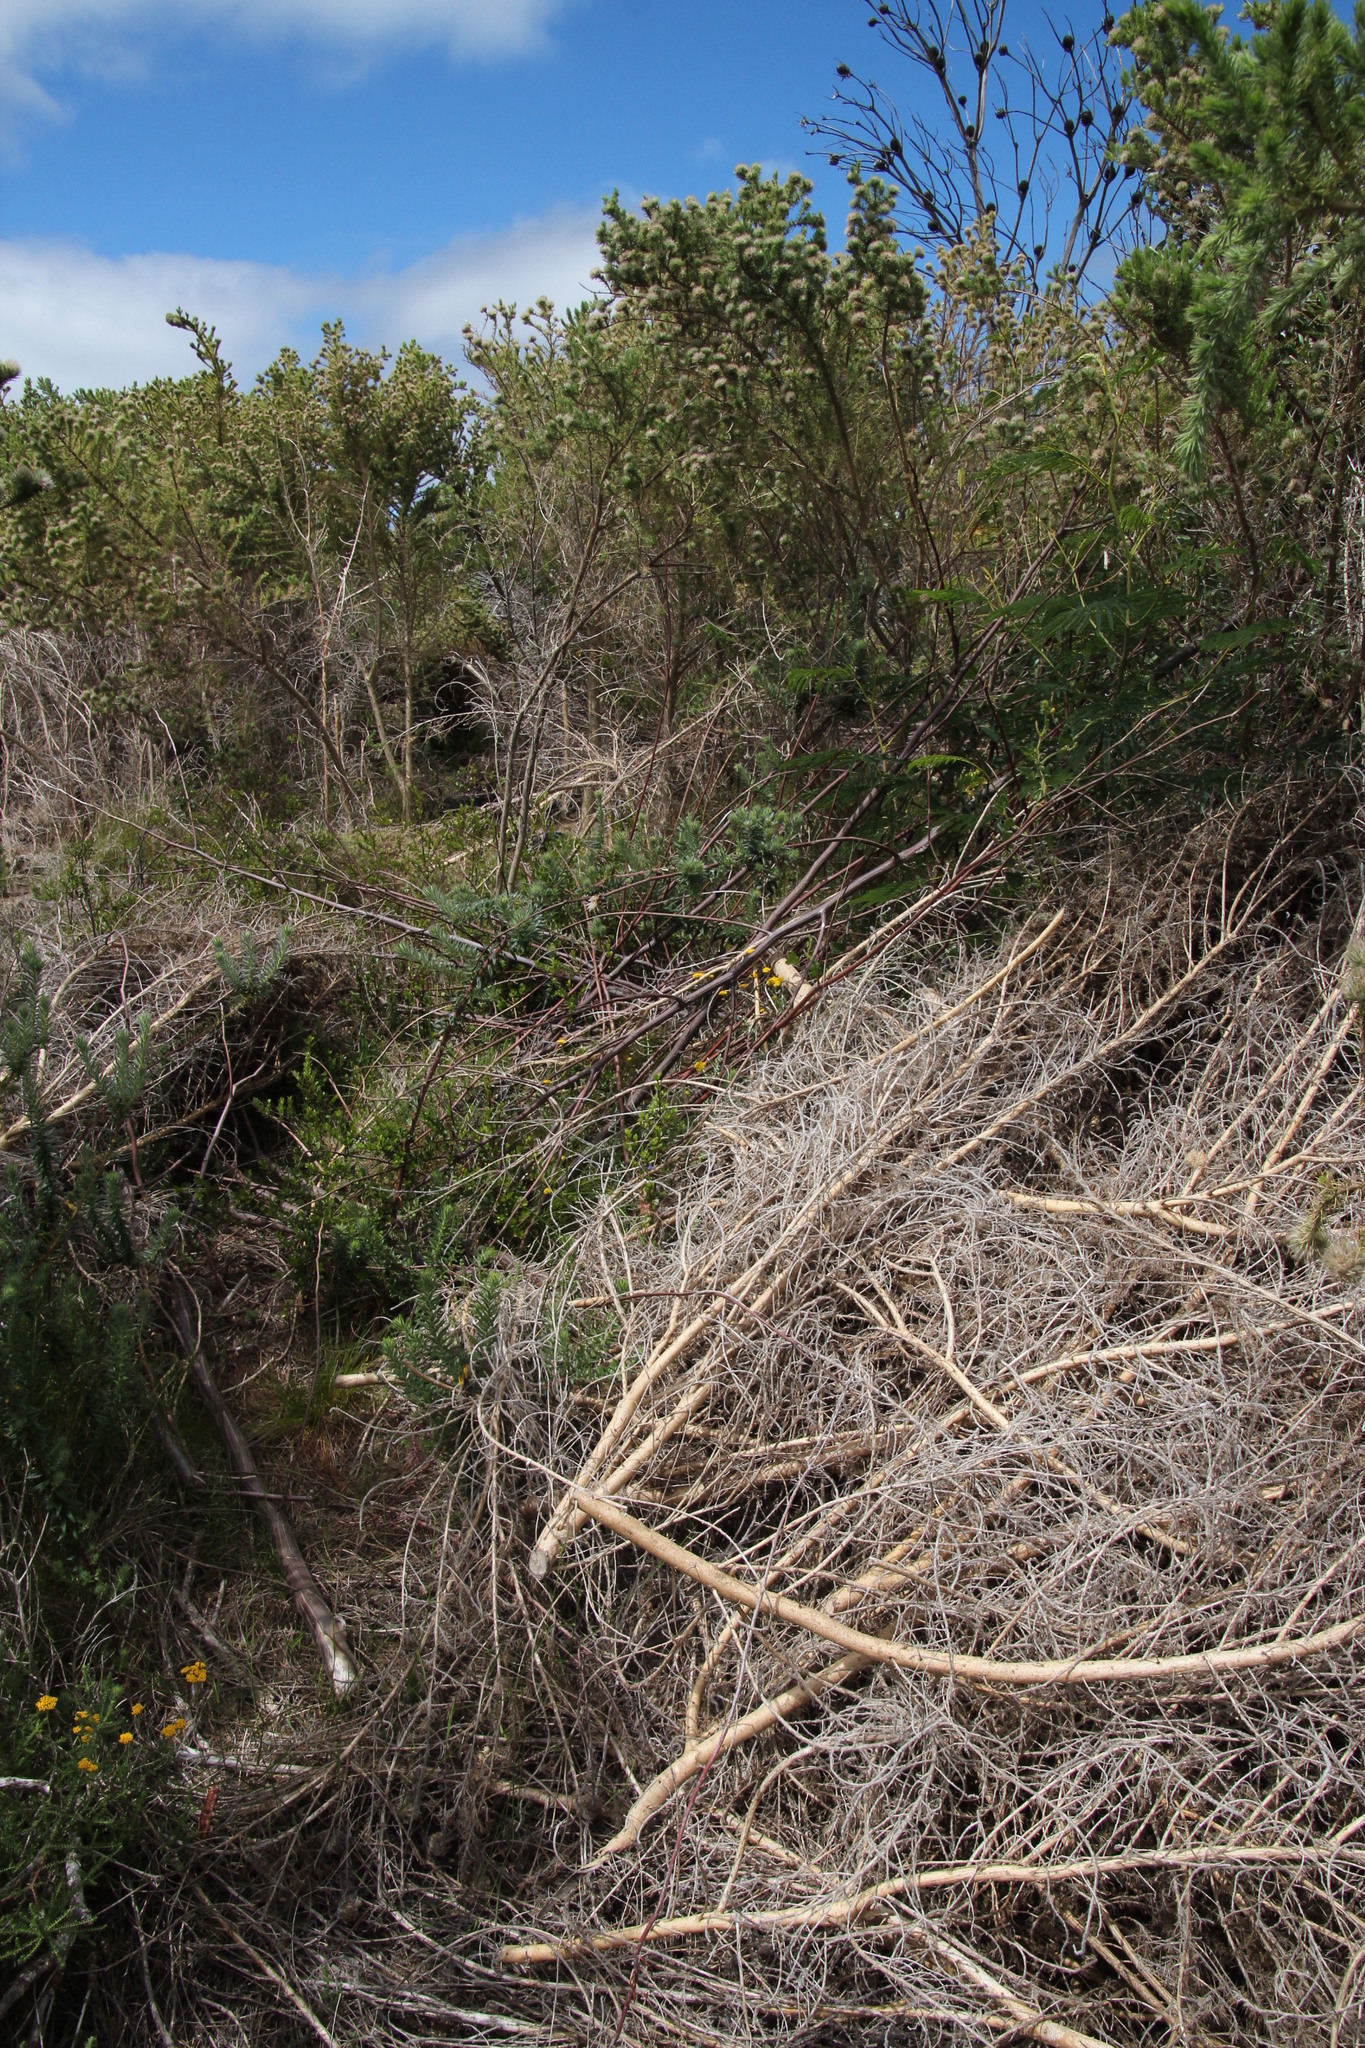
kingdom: Plantae
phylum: Tracheophyta
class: Magnoliopsida
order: Fabales
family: Fabaceae
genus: Aspalathus
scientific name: Aspalathus chenopoda
